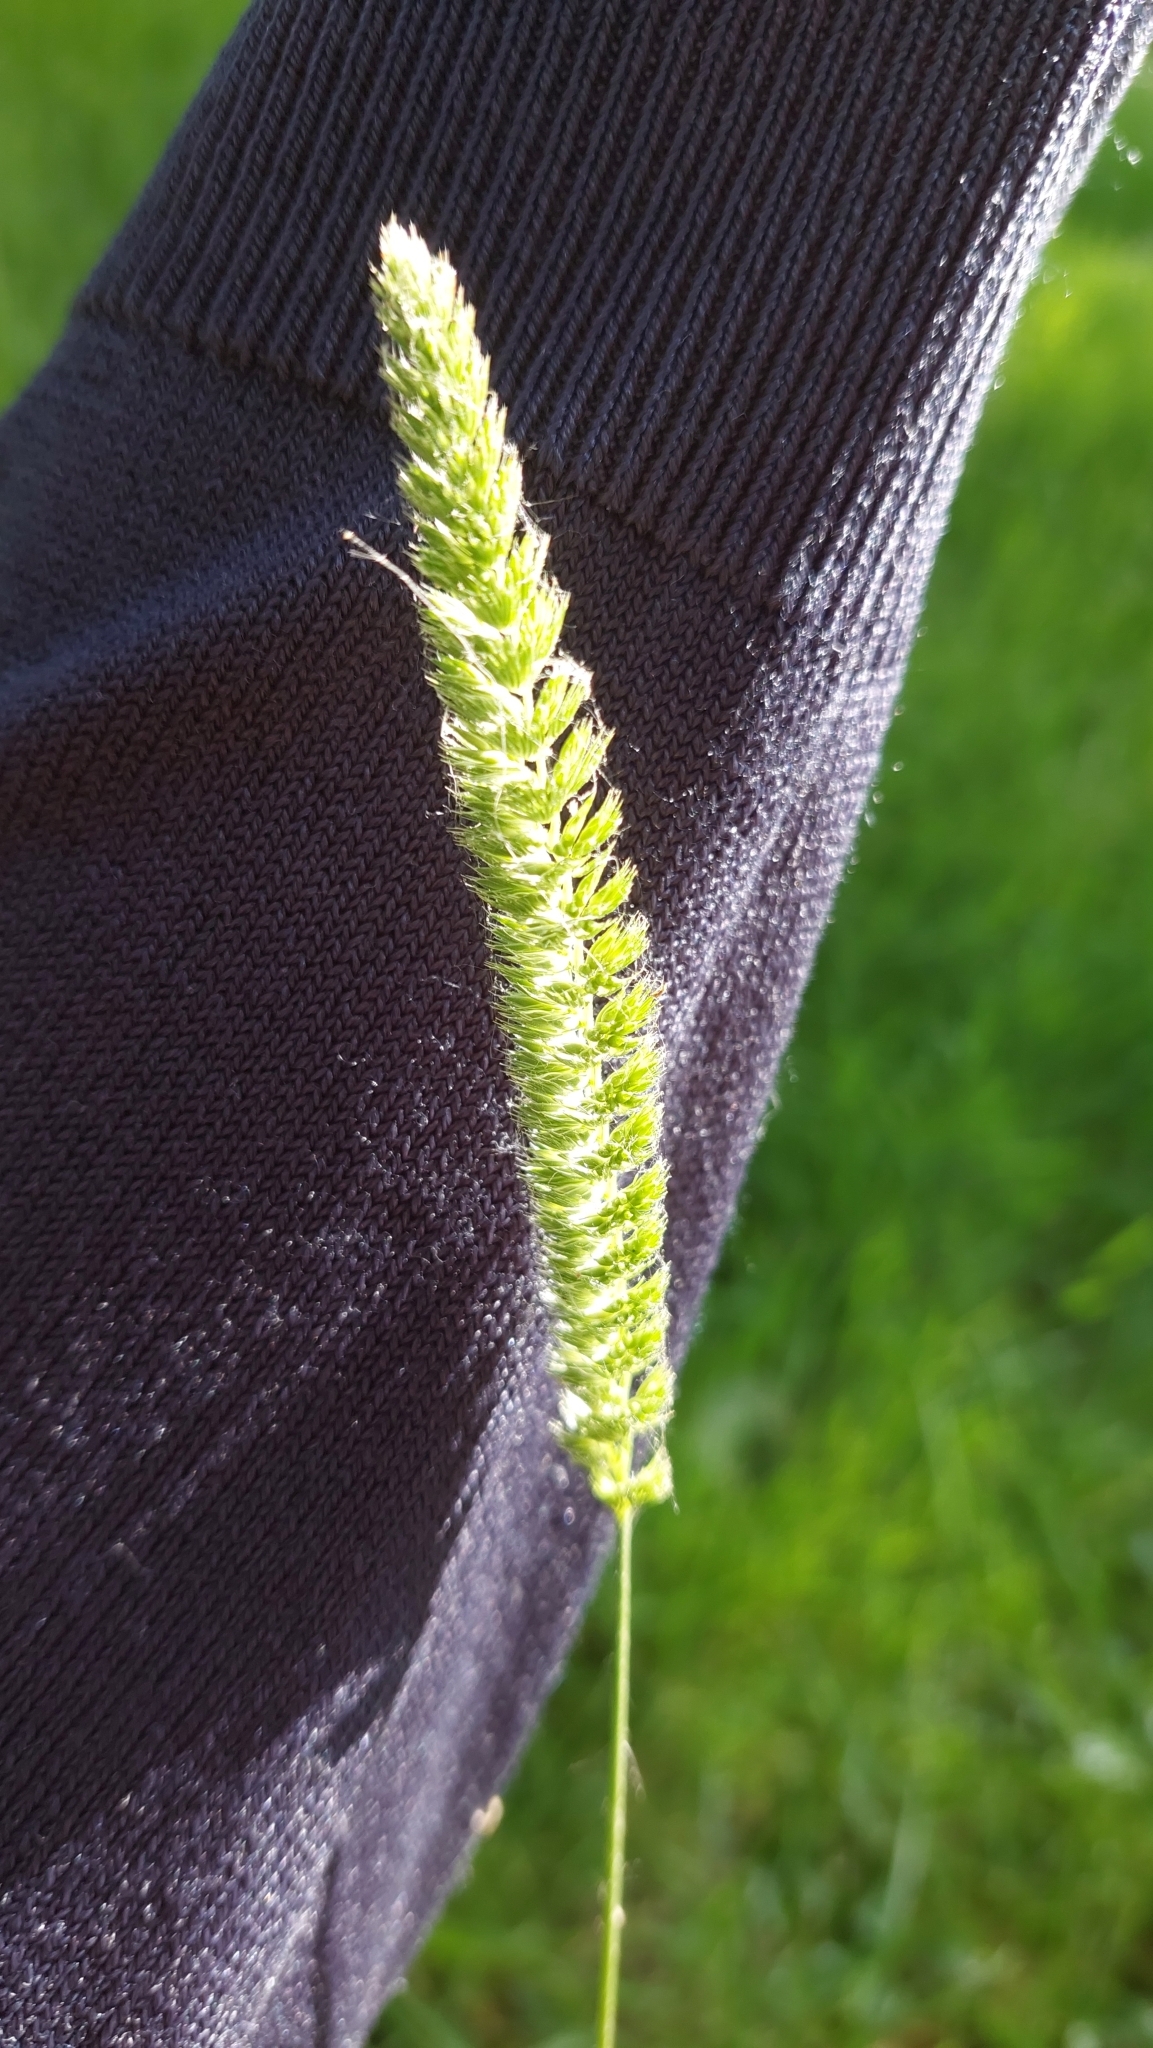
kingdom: Plantae
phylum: Tracheophyta
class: Liliopsida
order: Poales
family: Poaceae
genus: Cynosurus
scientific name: Cynosurus cristatus
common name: Crested dog's-tail
